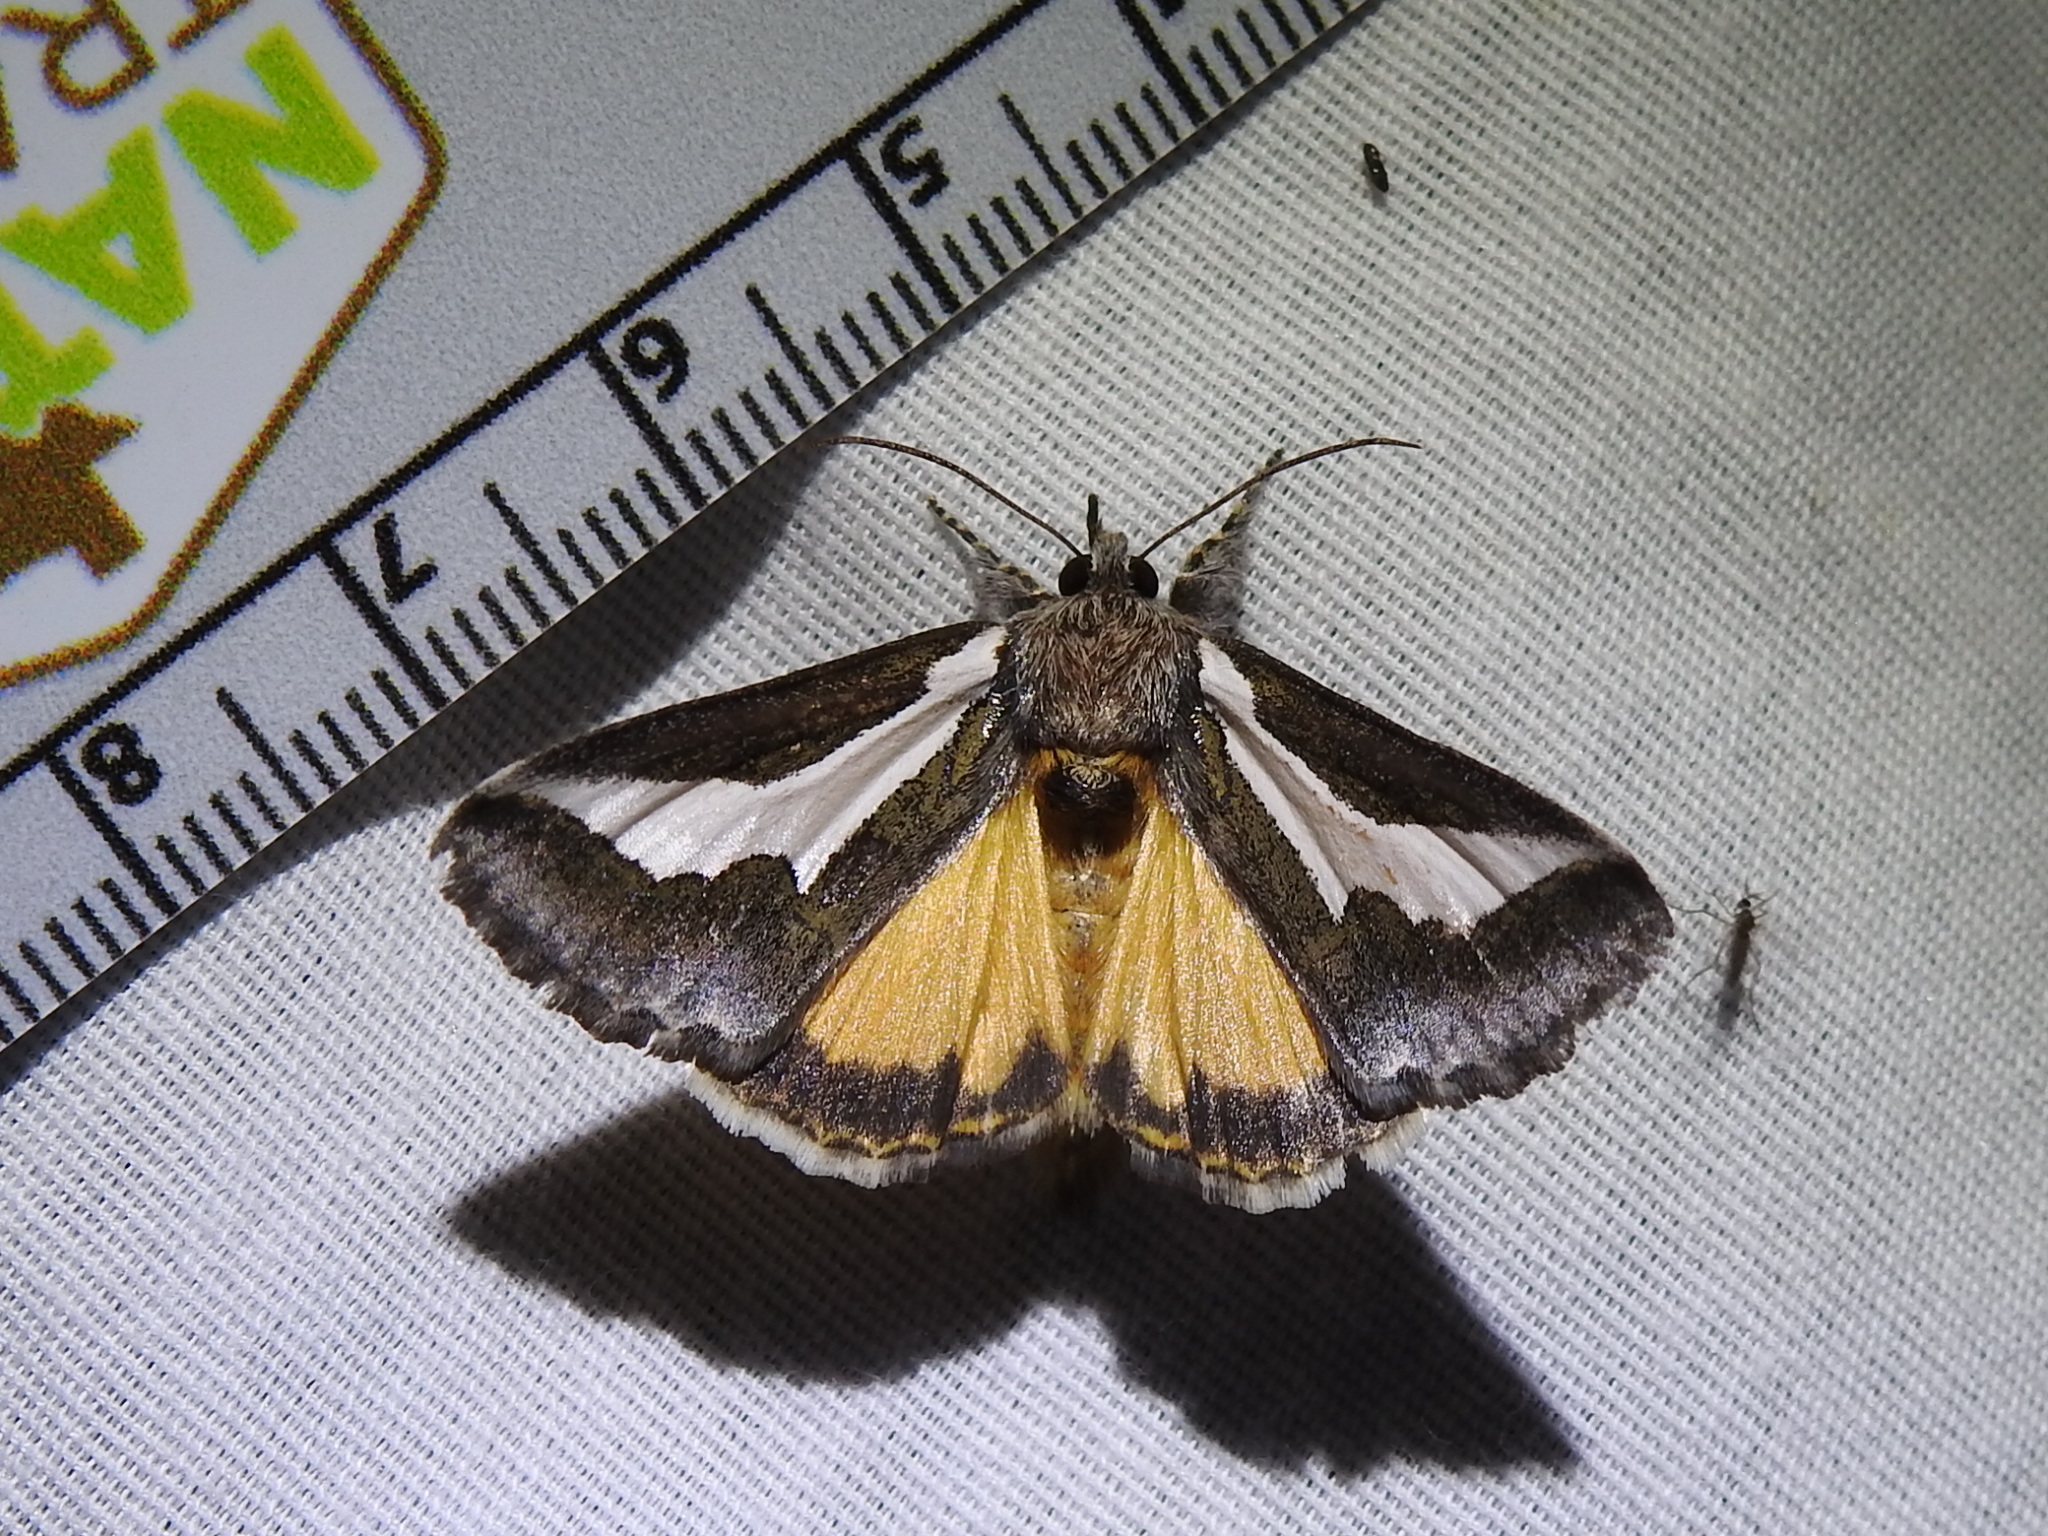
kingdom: Animalia
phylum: Arthropoda
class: Insecta
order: Lepidoptera
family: Noctuidae
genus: Euscirrhopterus
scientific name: Euscirrhopterus cosyra
